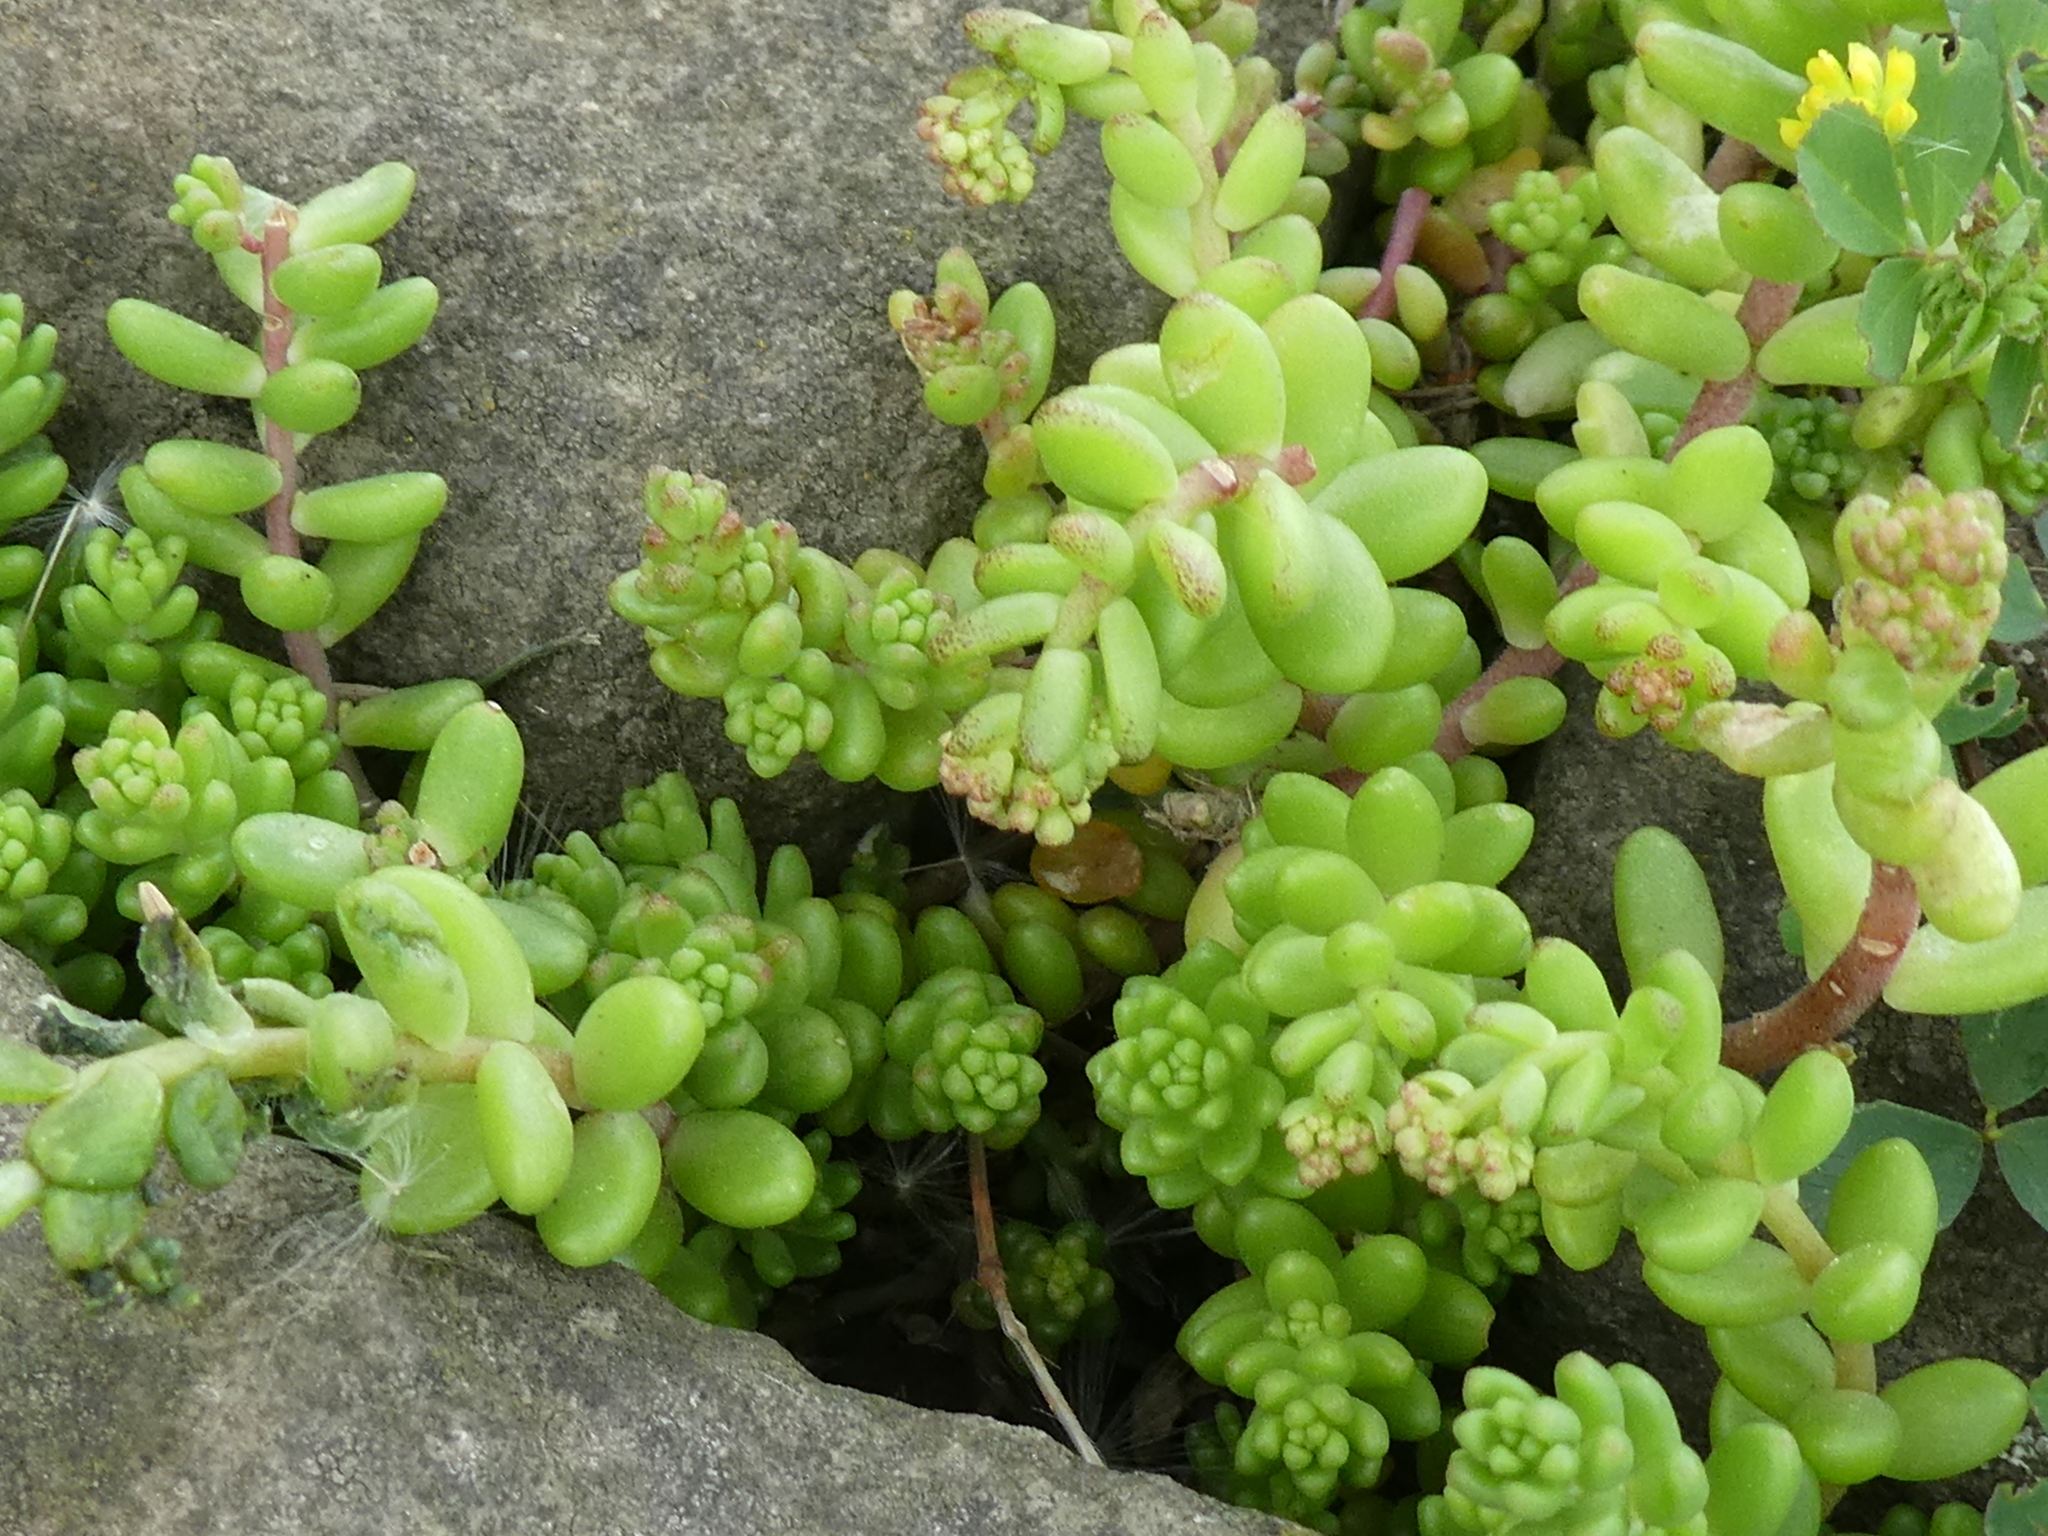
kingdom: Plantae
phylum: Tracheophyta
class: Magnoliopsida
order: Saxifragales
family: Crassulaceae
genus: Sedum
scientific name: Sedum album
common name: White stonecrop
